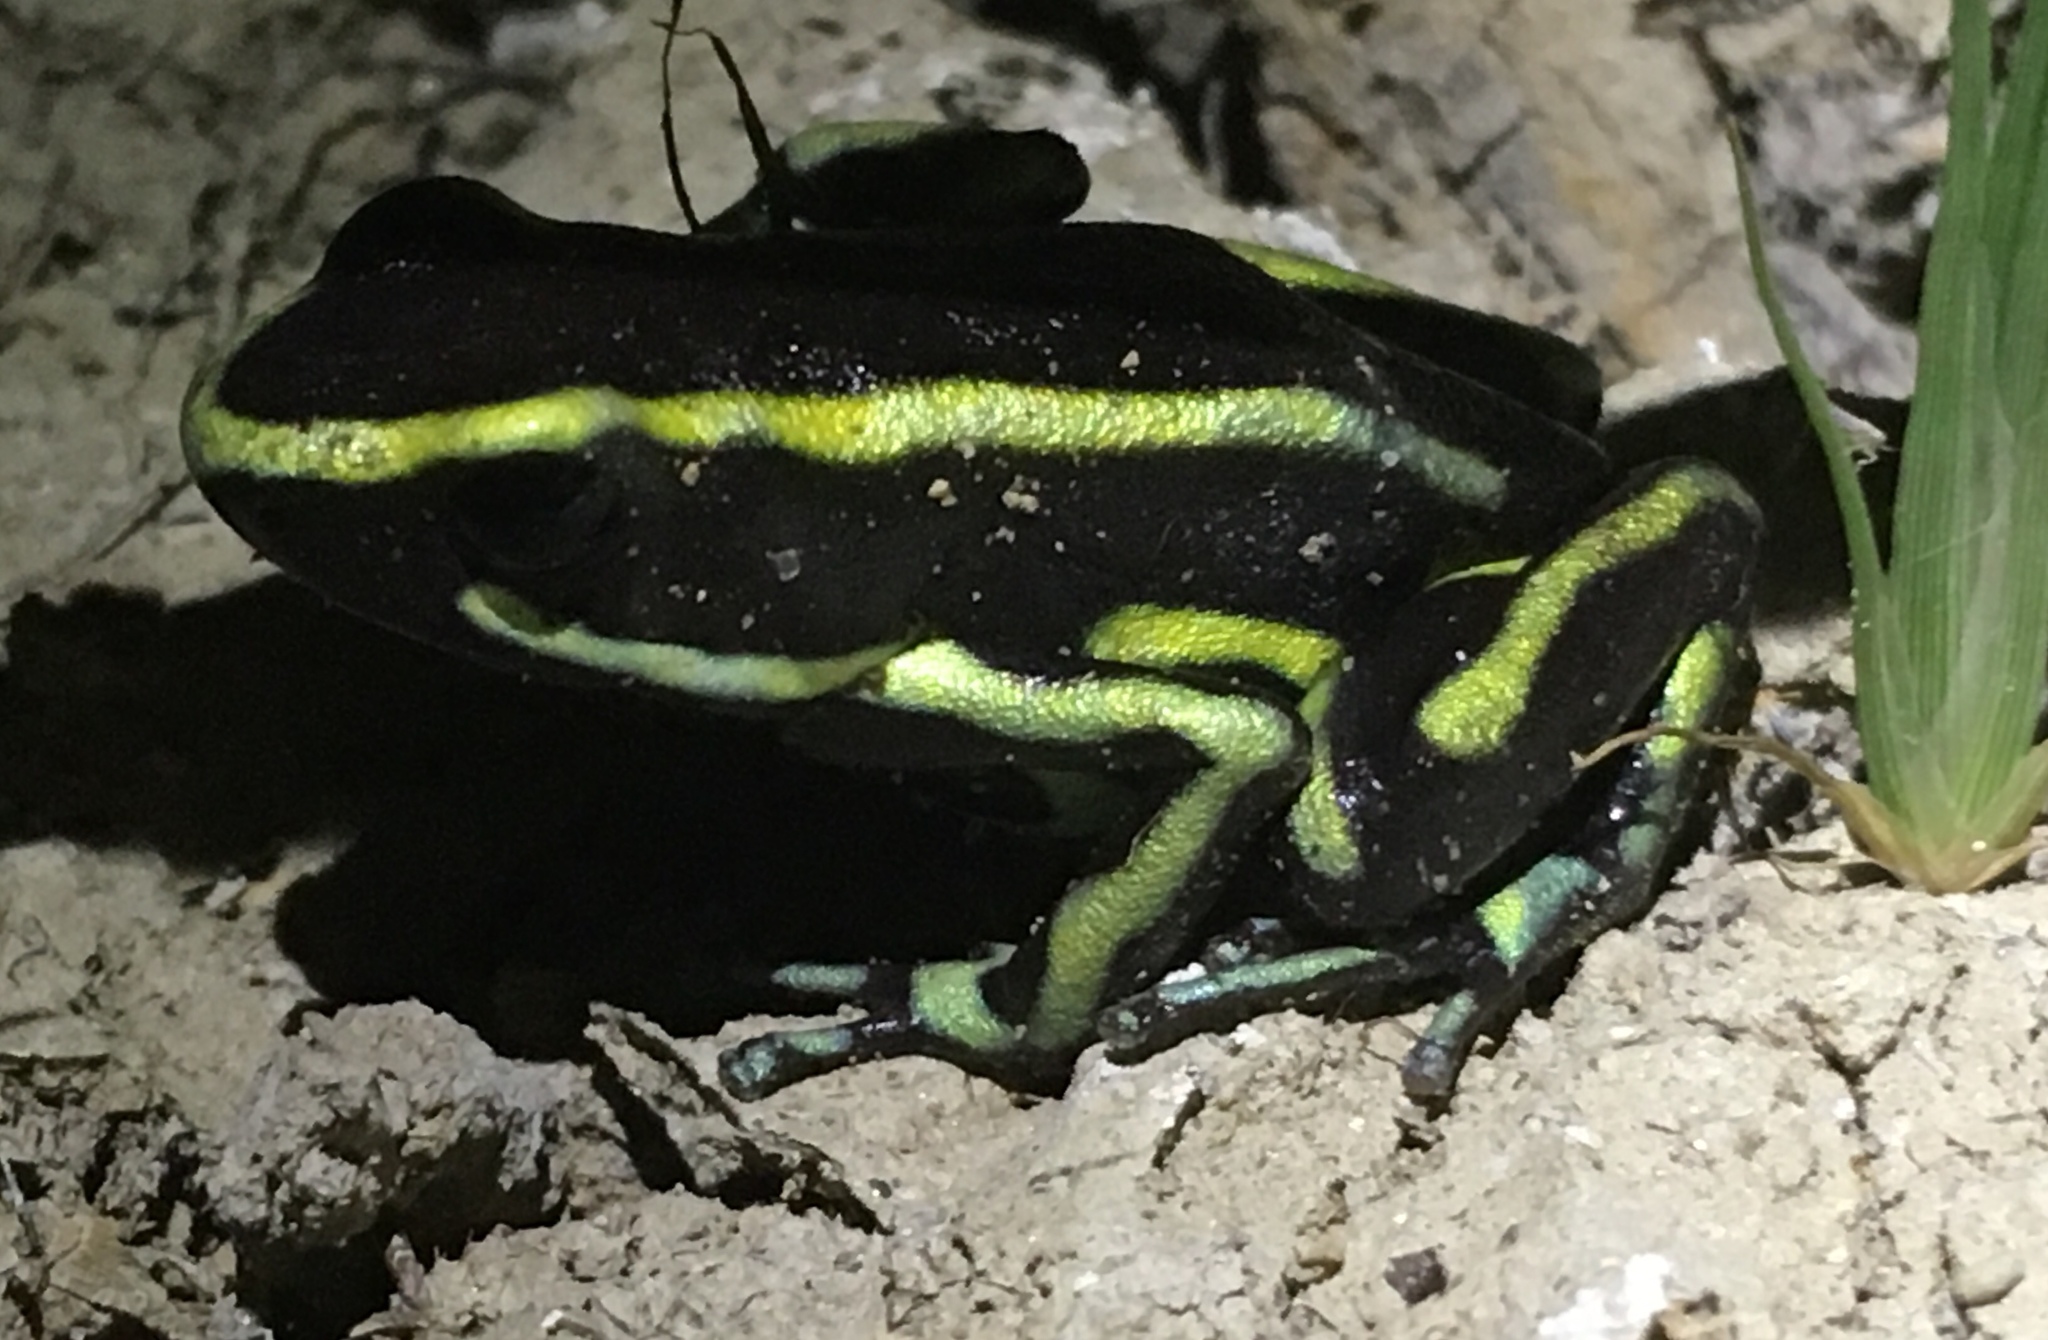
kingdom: Animalia
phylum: Chordata
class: Amphibia
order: Anura
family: Dendrobatidae
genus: Dendrobates
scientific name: Dendrobates truncatus
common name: Yellow-striped poison frog
